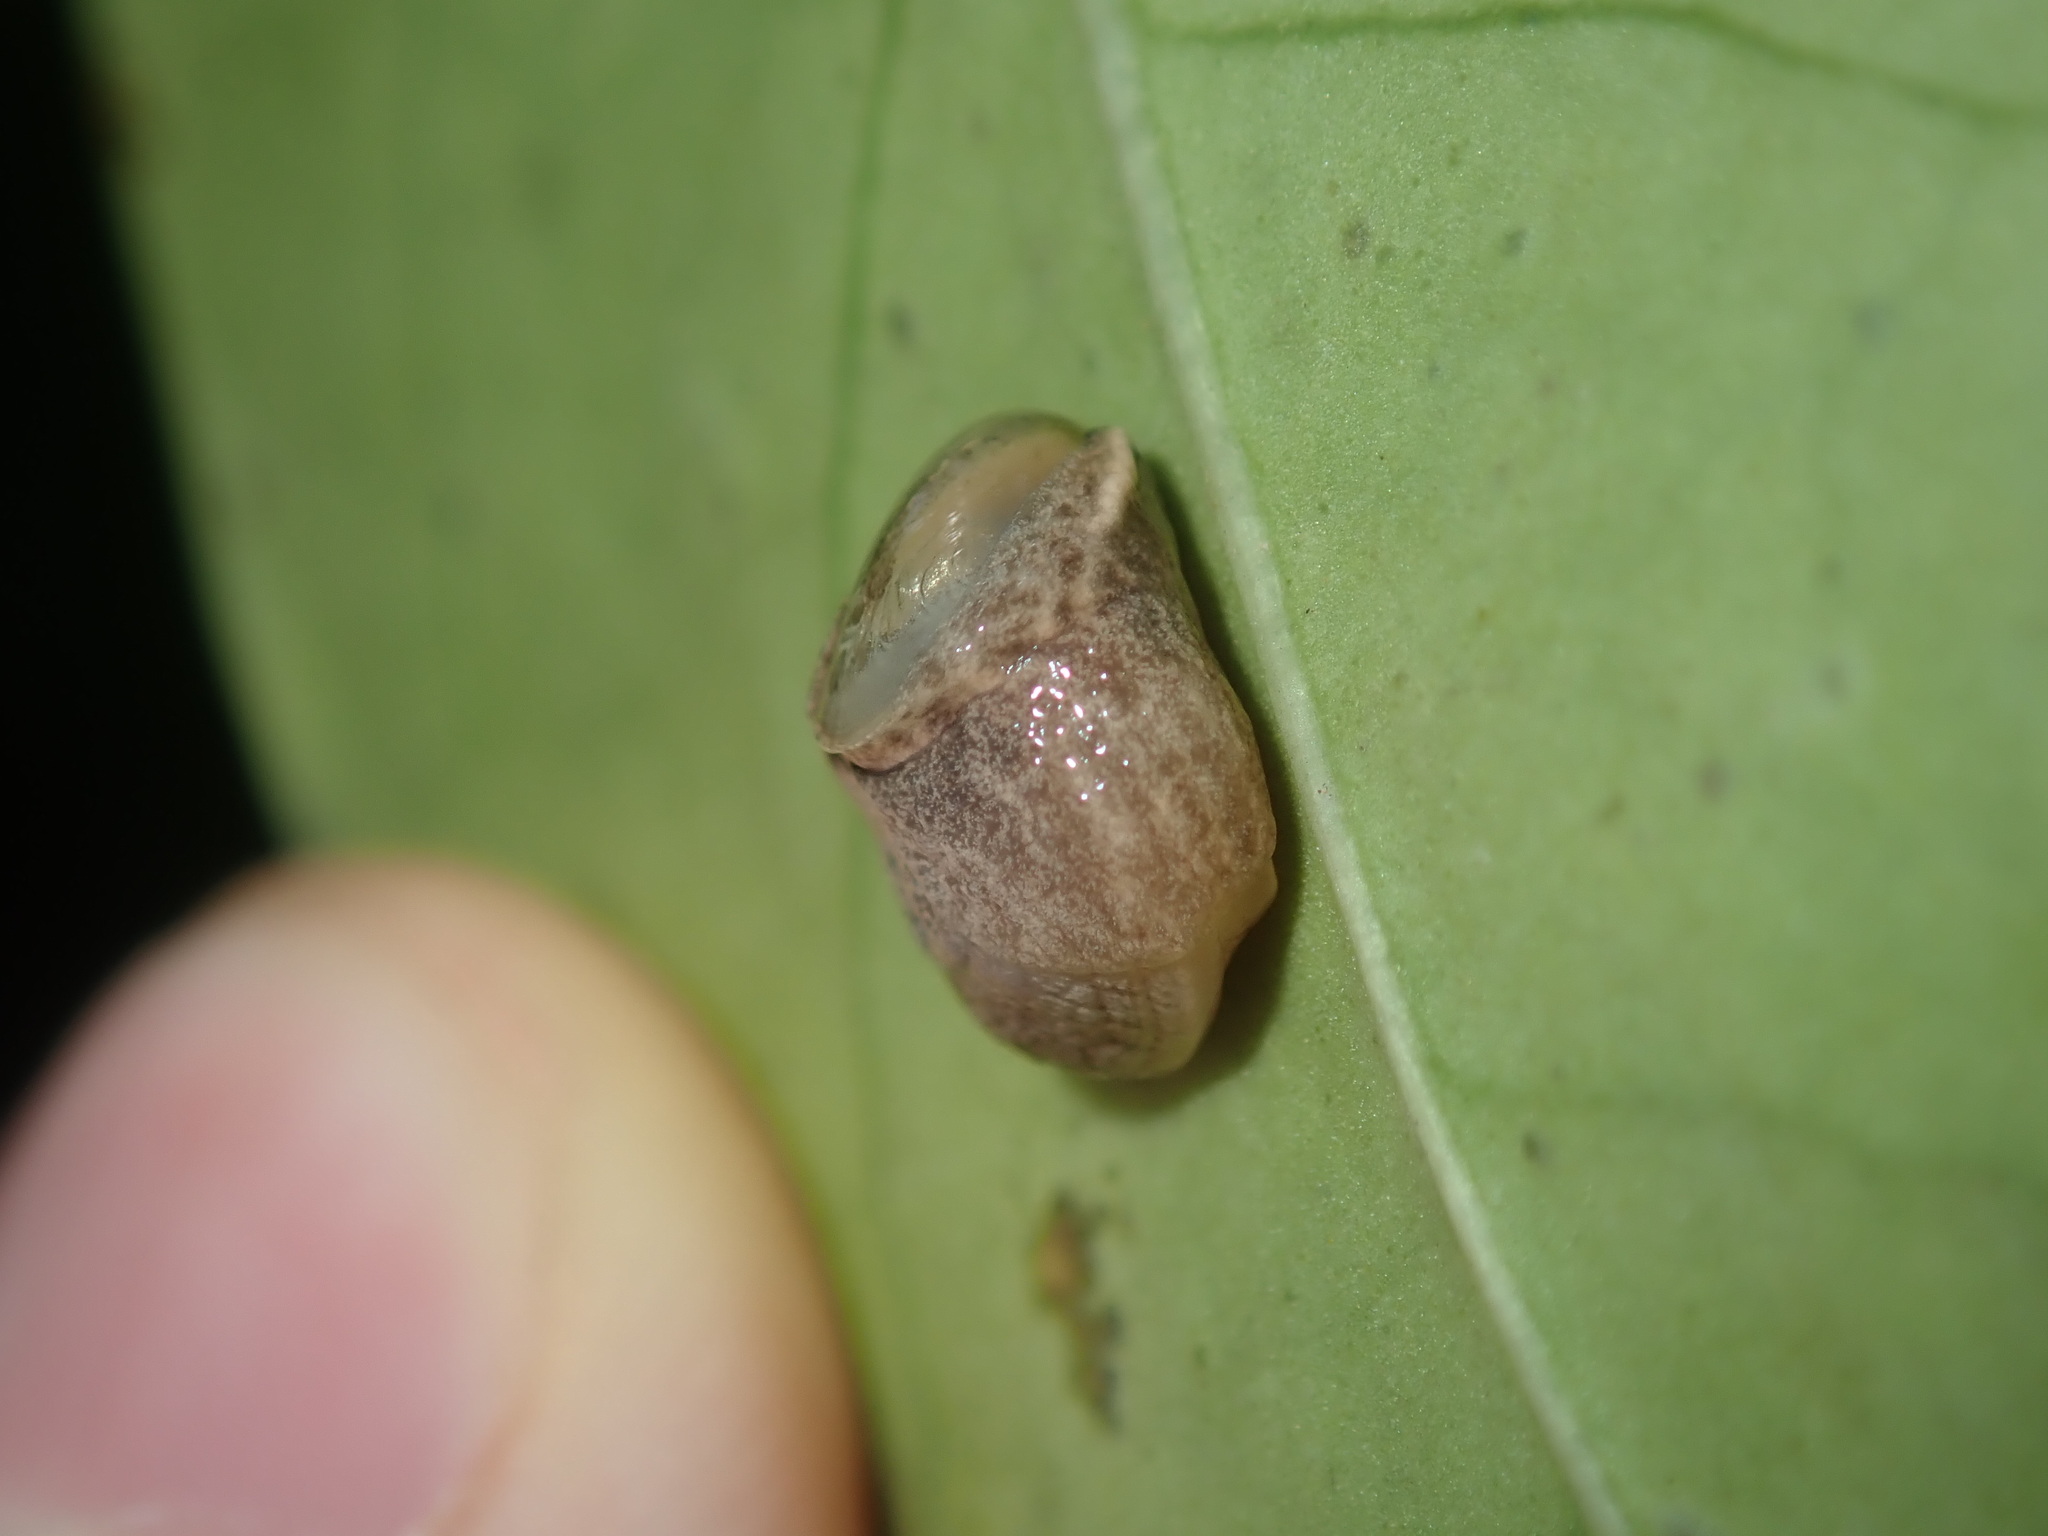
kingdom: Animalia
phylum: Mollusca
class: Gastropoda
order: Stylommatophora
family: Helicarionidae
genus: Ubiquitarion
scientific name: Ubiquitarion iridis
